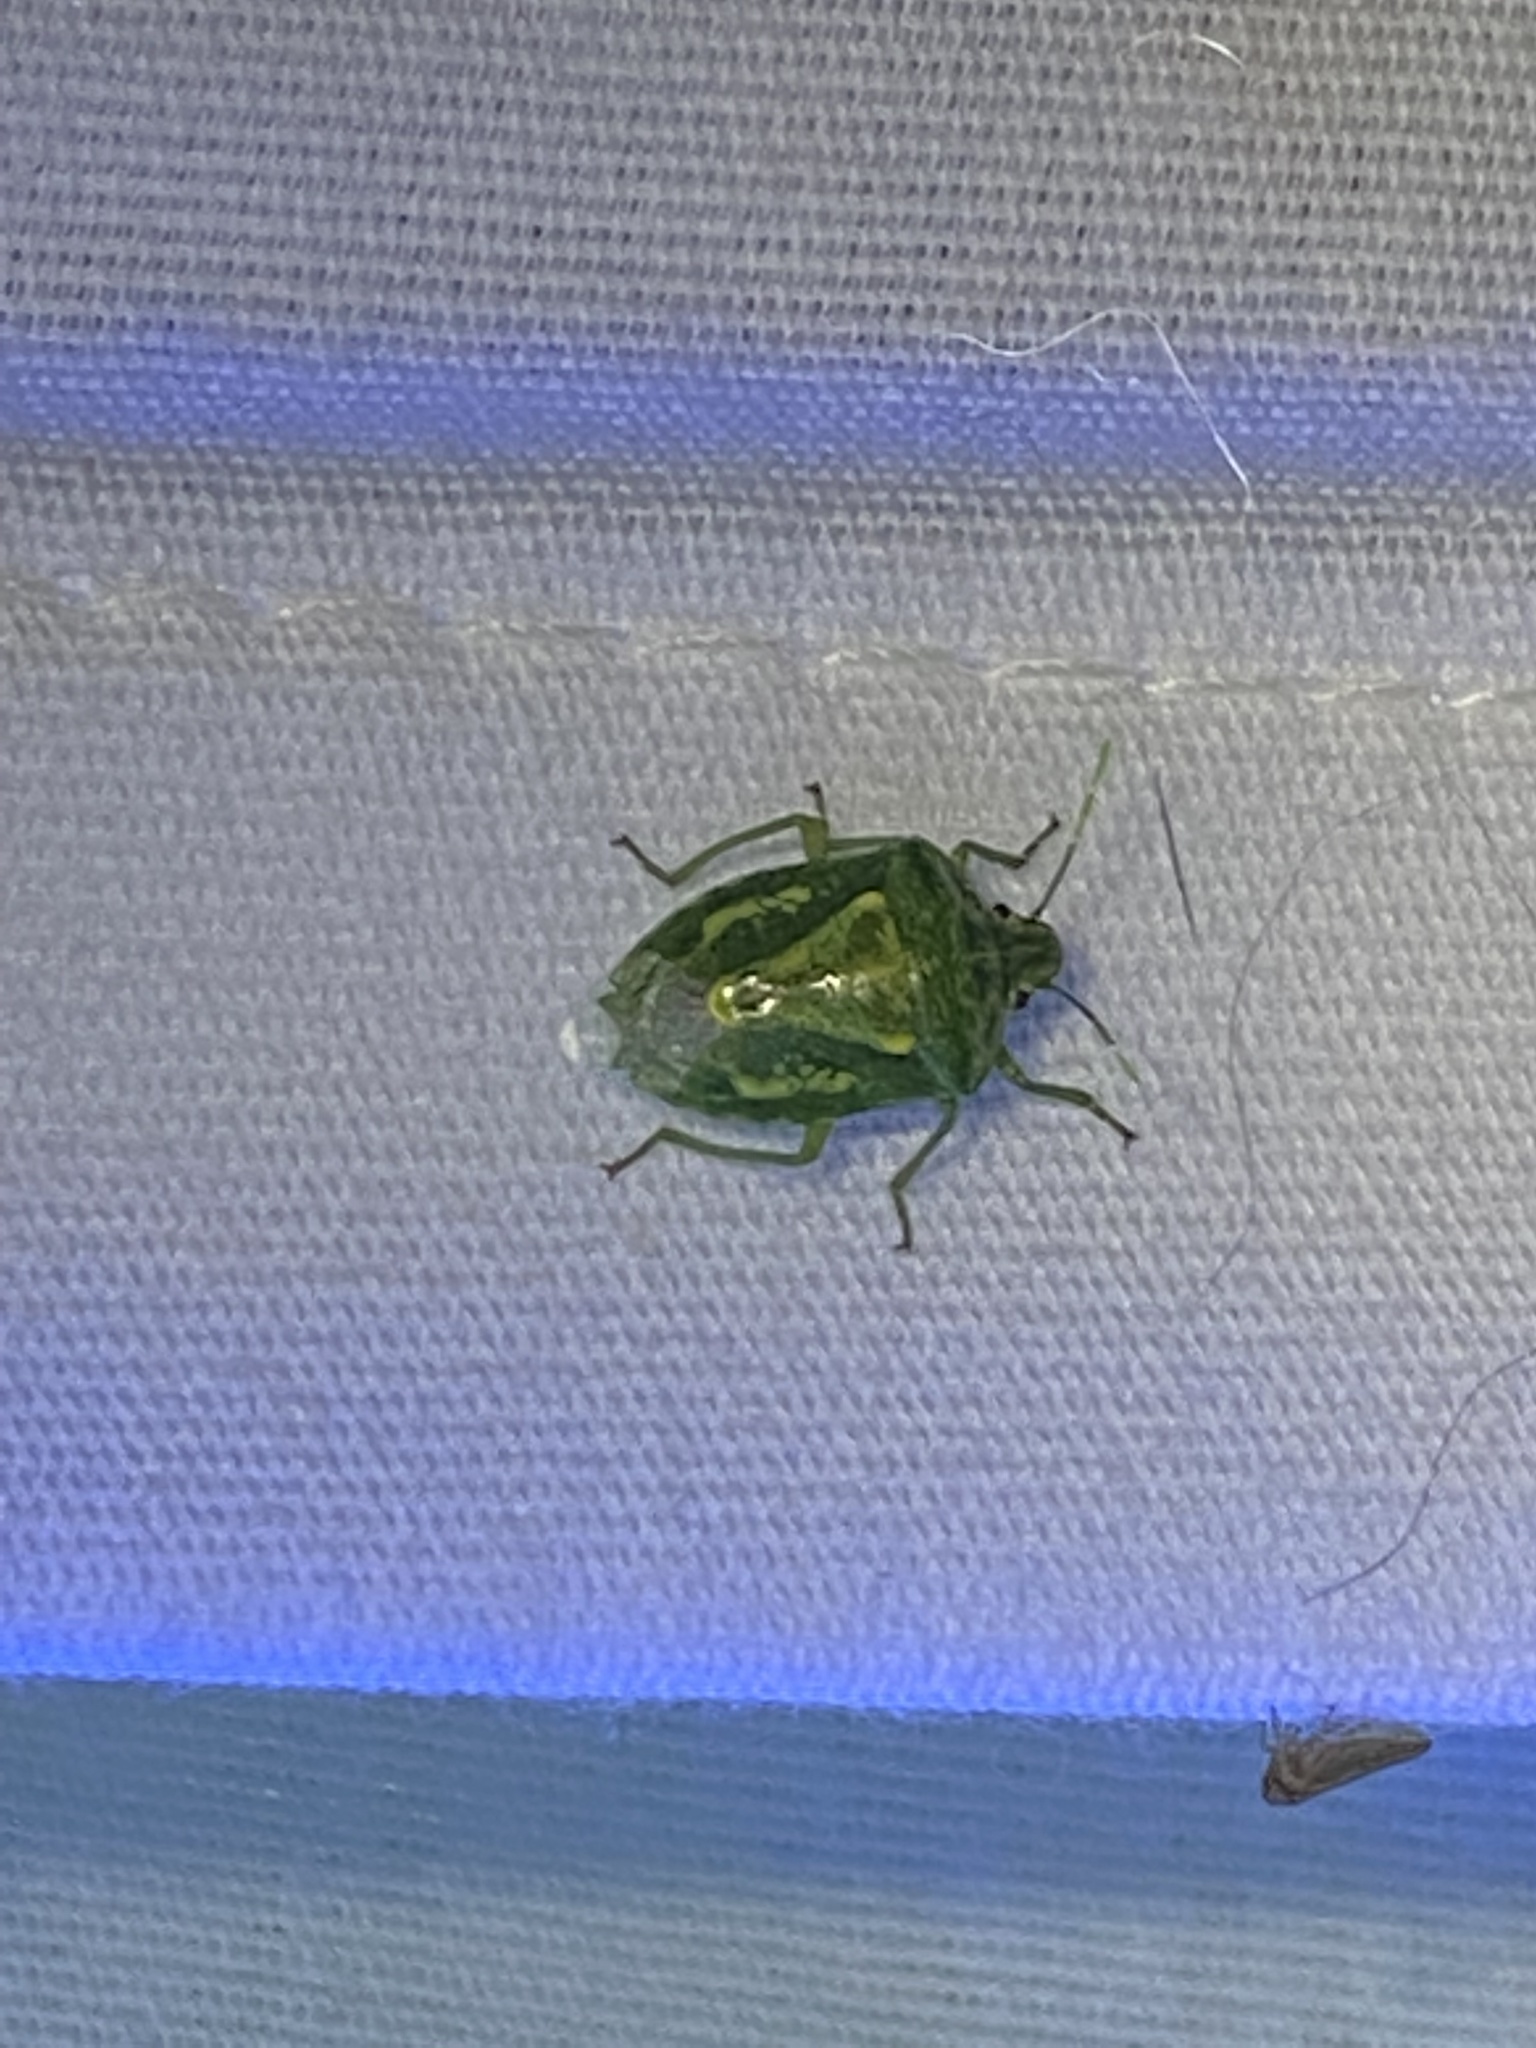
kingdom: Animalia
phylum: Arthropoda
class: Insecta
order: Hemiptera
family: Pentatomidae
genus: Banasa
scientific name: Banasa euchlora
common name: Cedar berry bug
